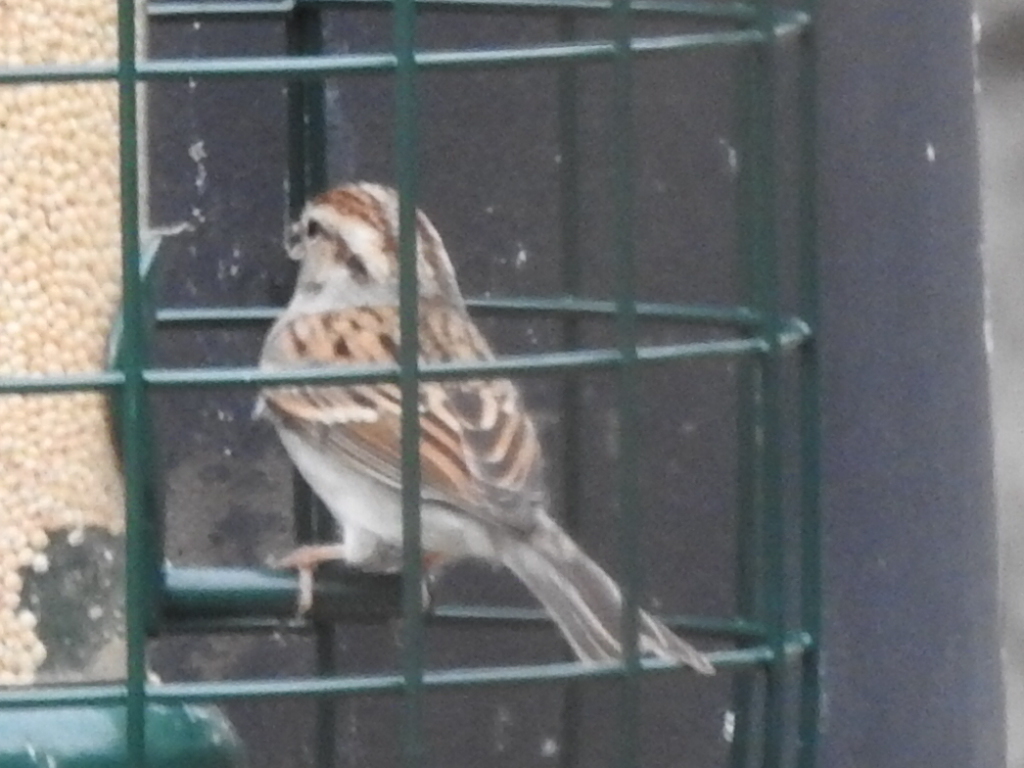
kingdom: Animalia
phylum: Chordata
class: Aves
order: Passeriformes
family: Passerellidae
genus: Spizella
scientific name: Spizella passerina
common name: Chipping sparrow
